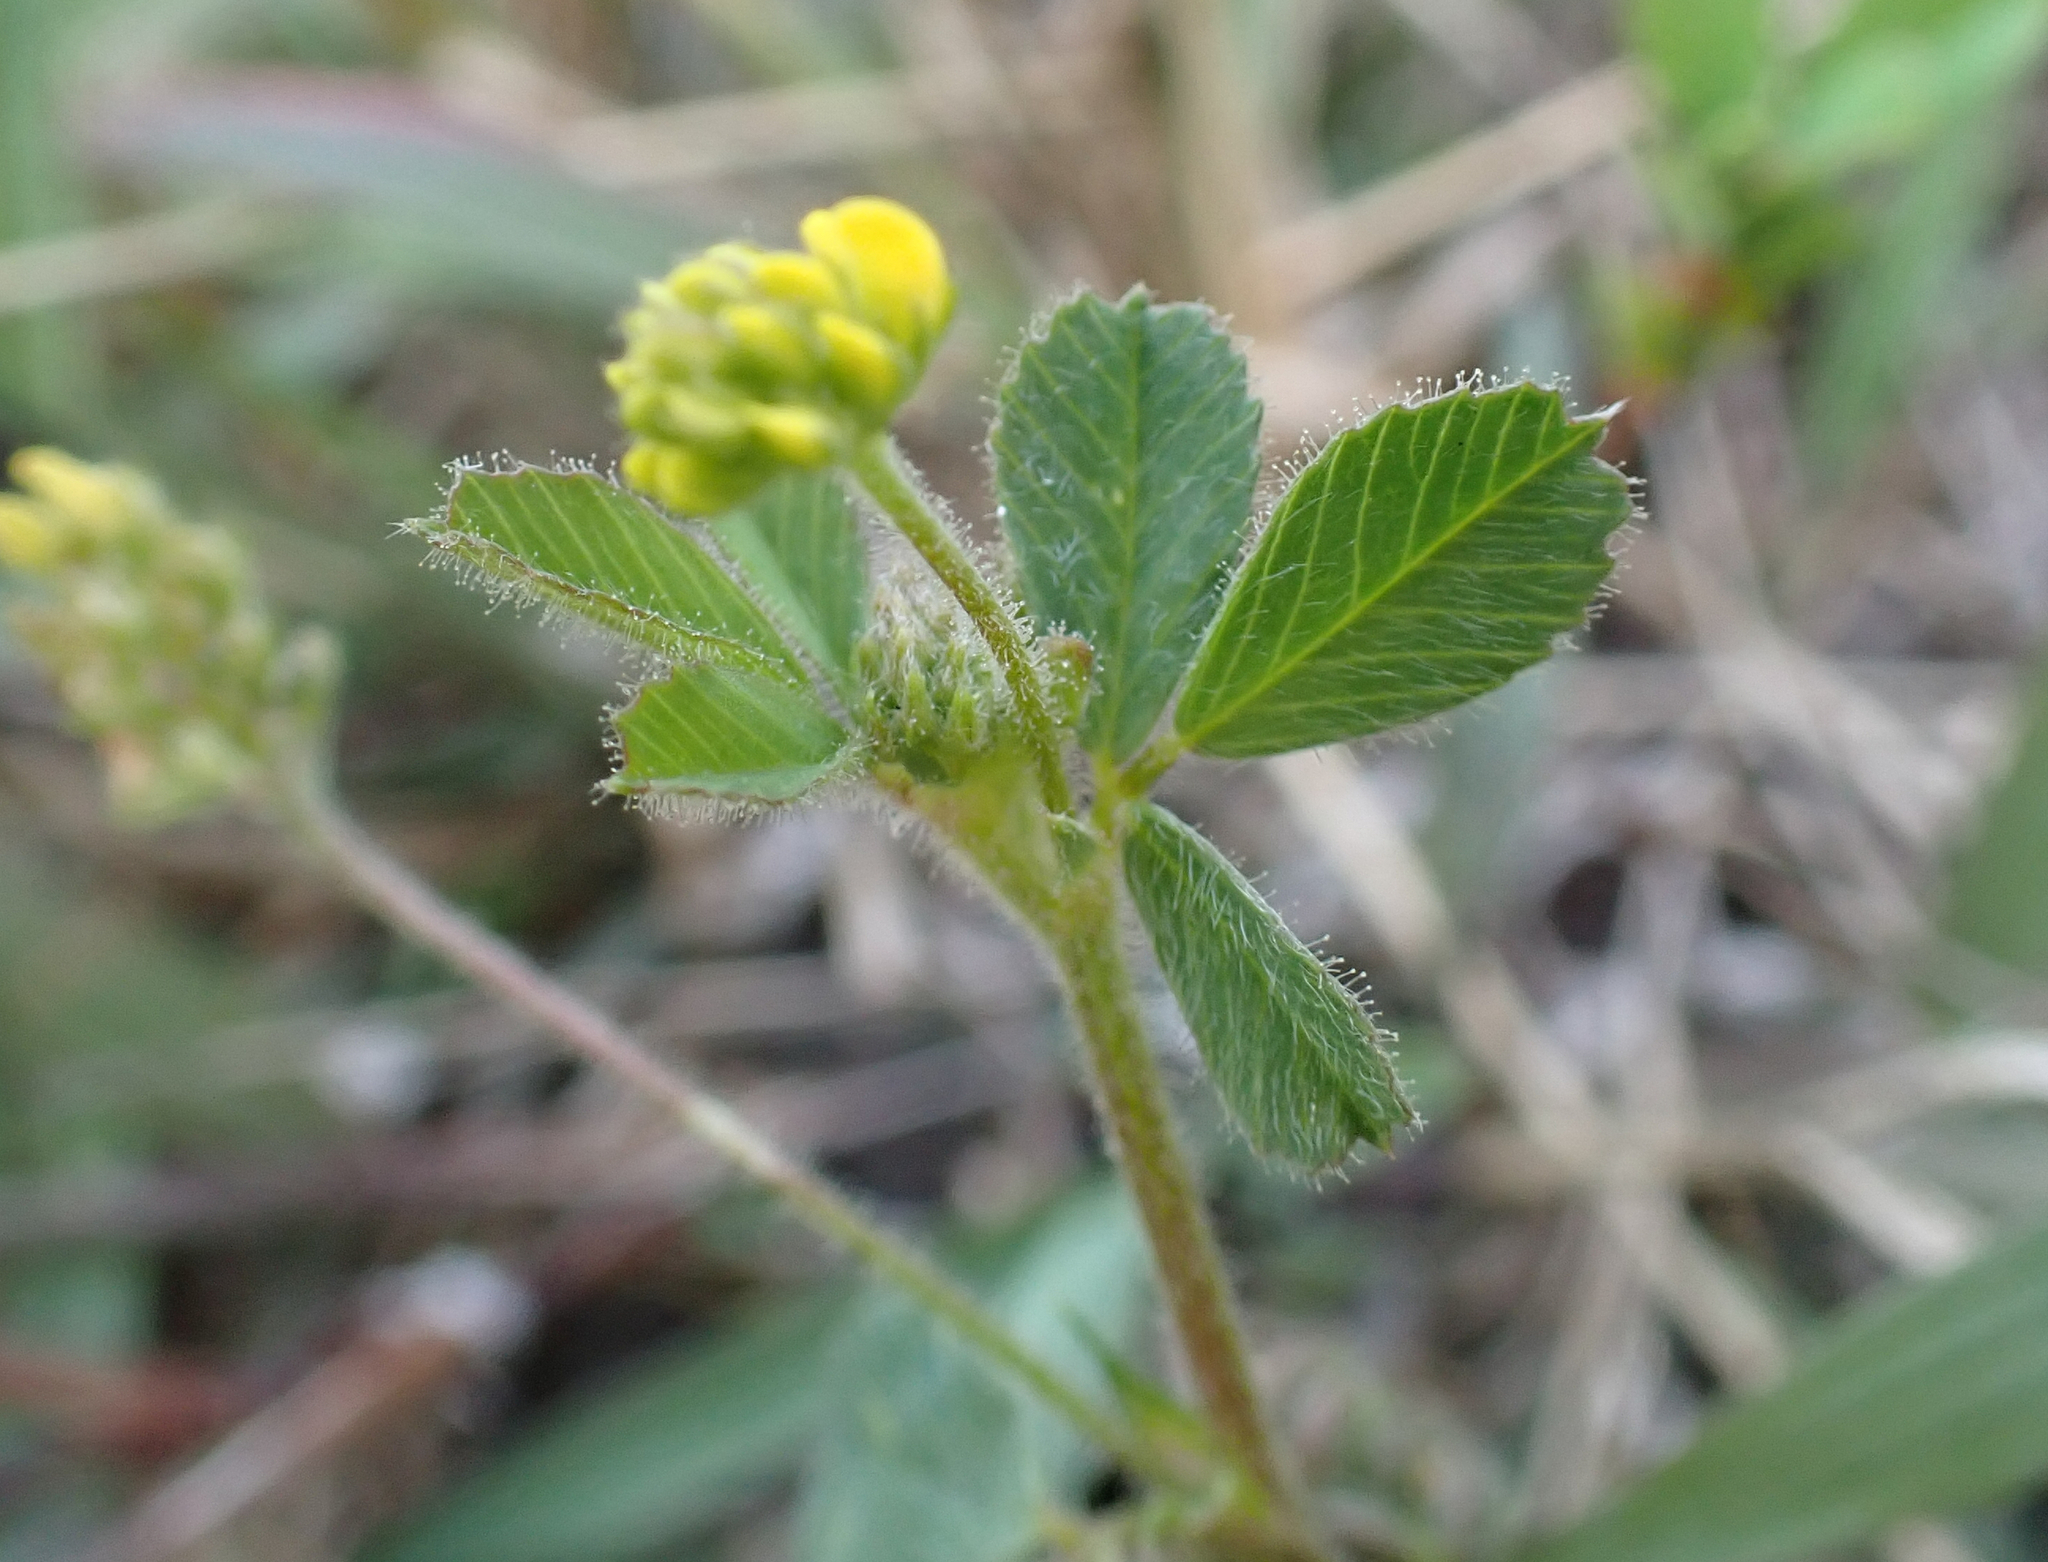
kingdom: Plantae
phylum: Tracheophyta
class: Magnoliopsida
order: Fabales
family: Fabaceae
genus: Medicago
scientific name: Medicago lupulina
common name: Black medick
